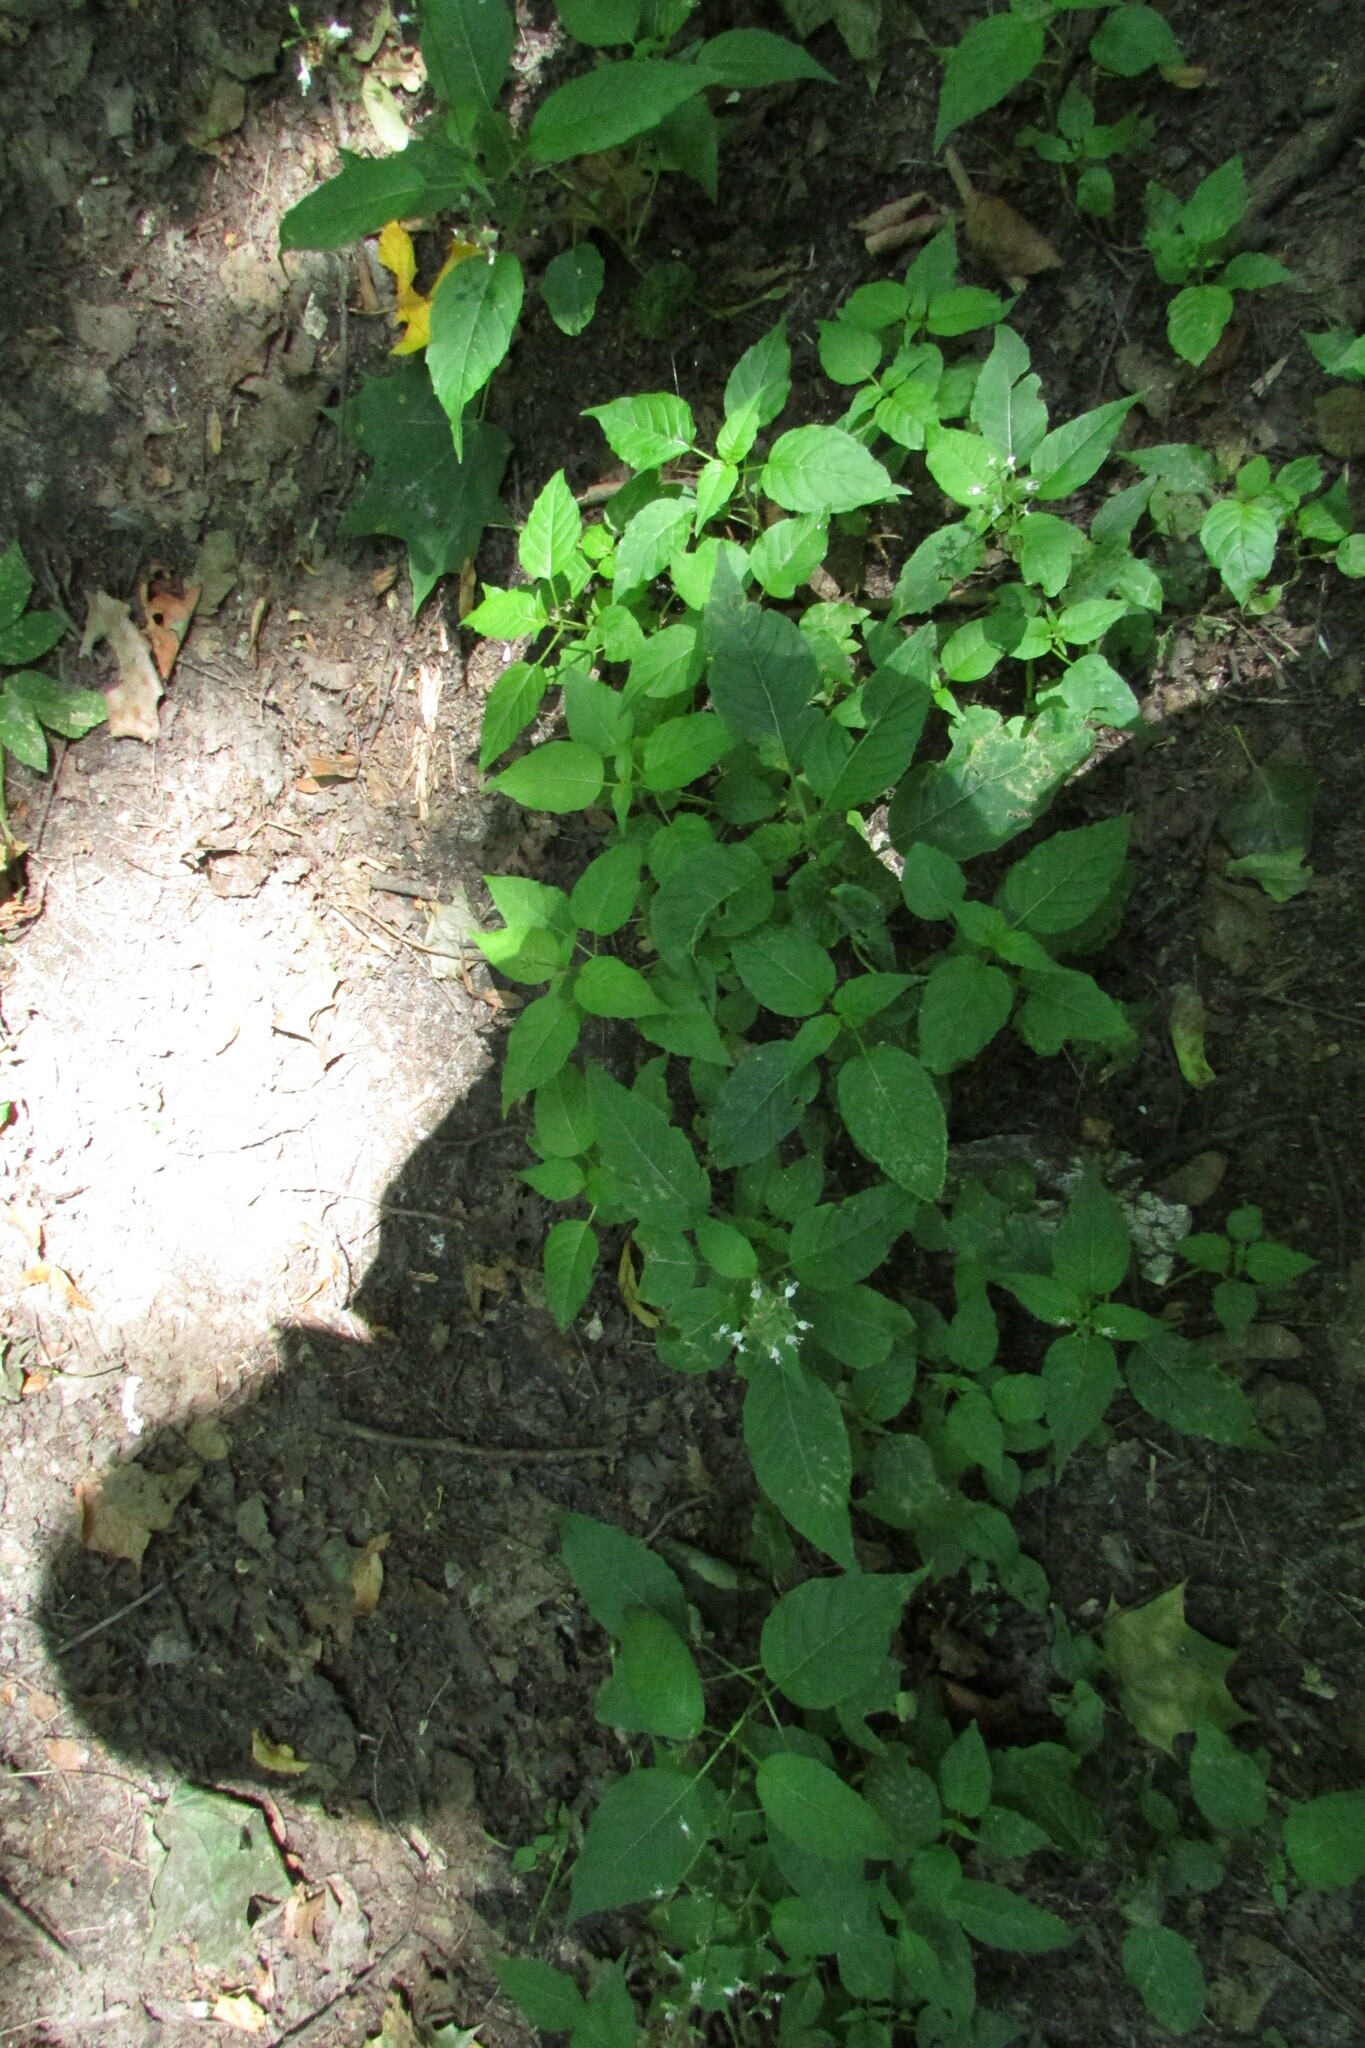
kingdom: Plantae
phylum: Tracheophyta
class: Magnoliopsida
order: Myrtales
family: Onagraceae
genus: Circaea
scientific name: Circaea lutetiana
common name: Enchanter's-nightshade
